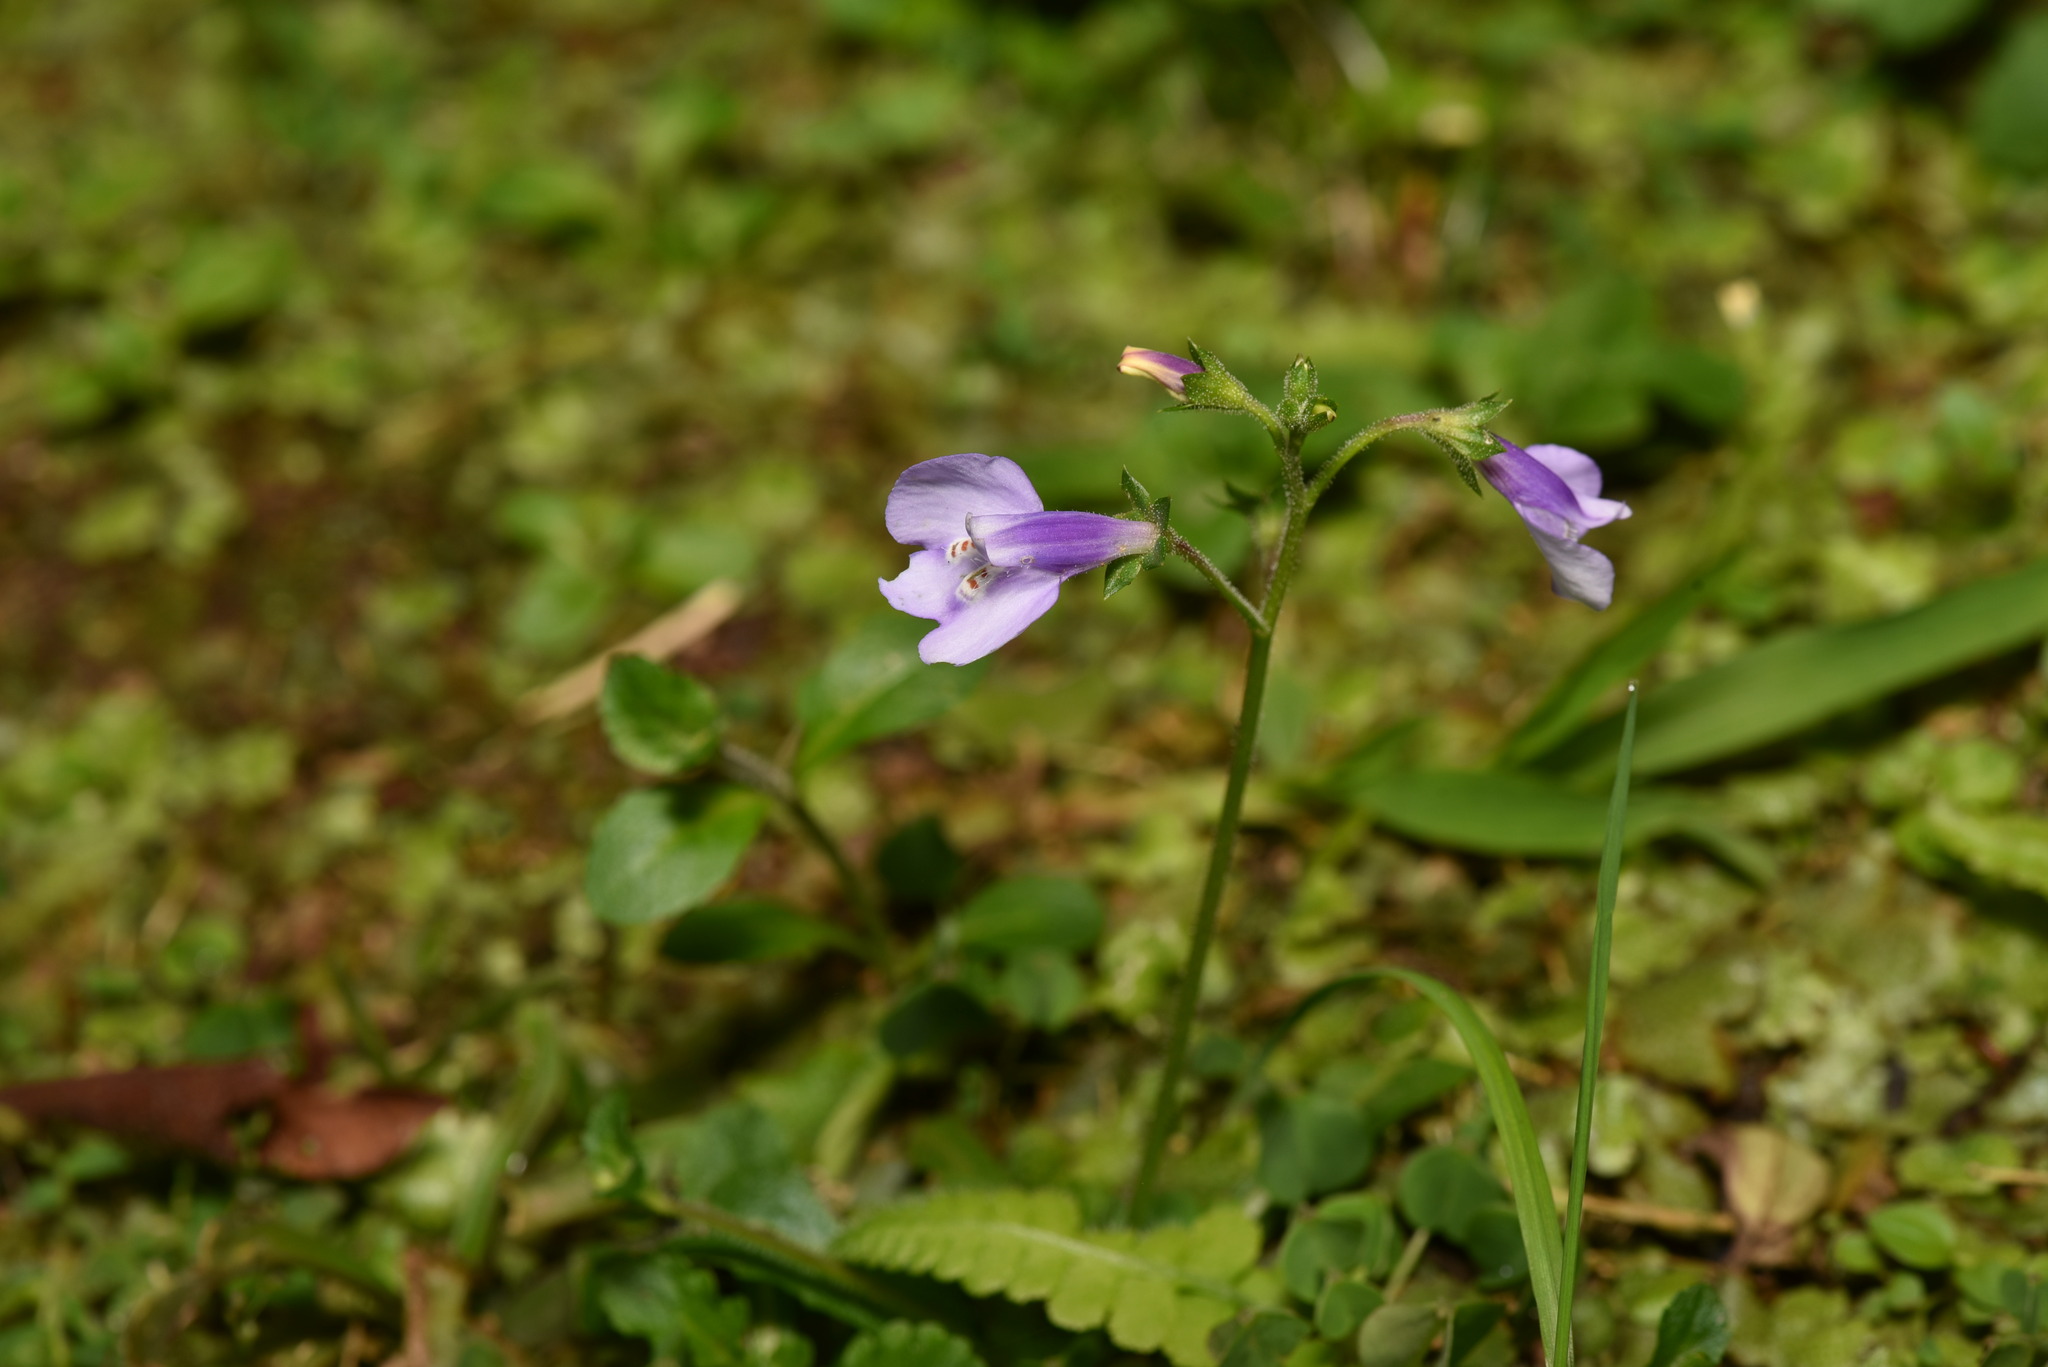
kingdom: Plantae
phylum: Tracheophyta
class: Magnoliopsida
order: Lamiales
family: Mazaceae
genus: Mazus
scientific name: Mazus fauriei
